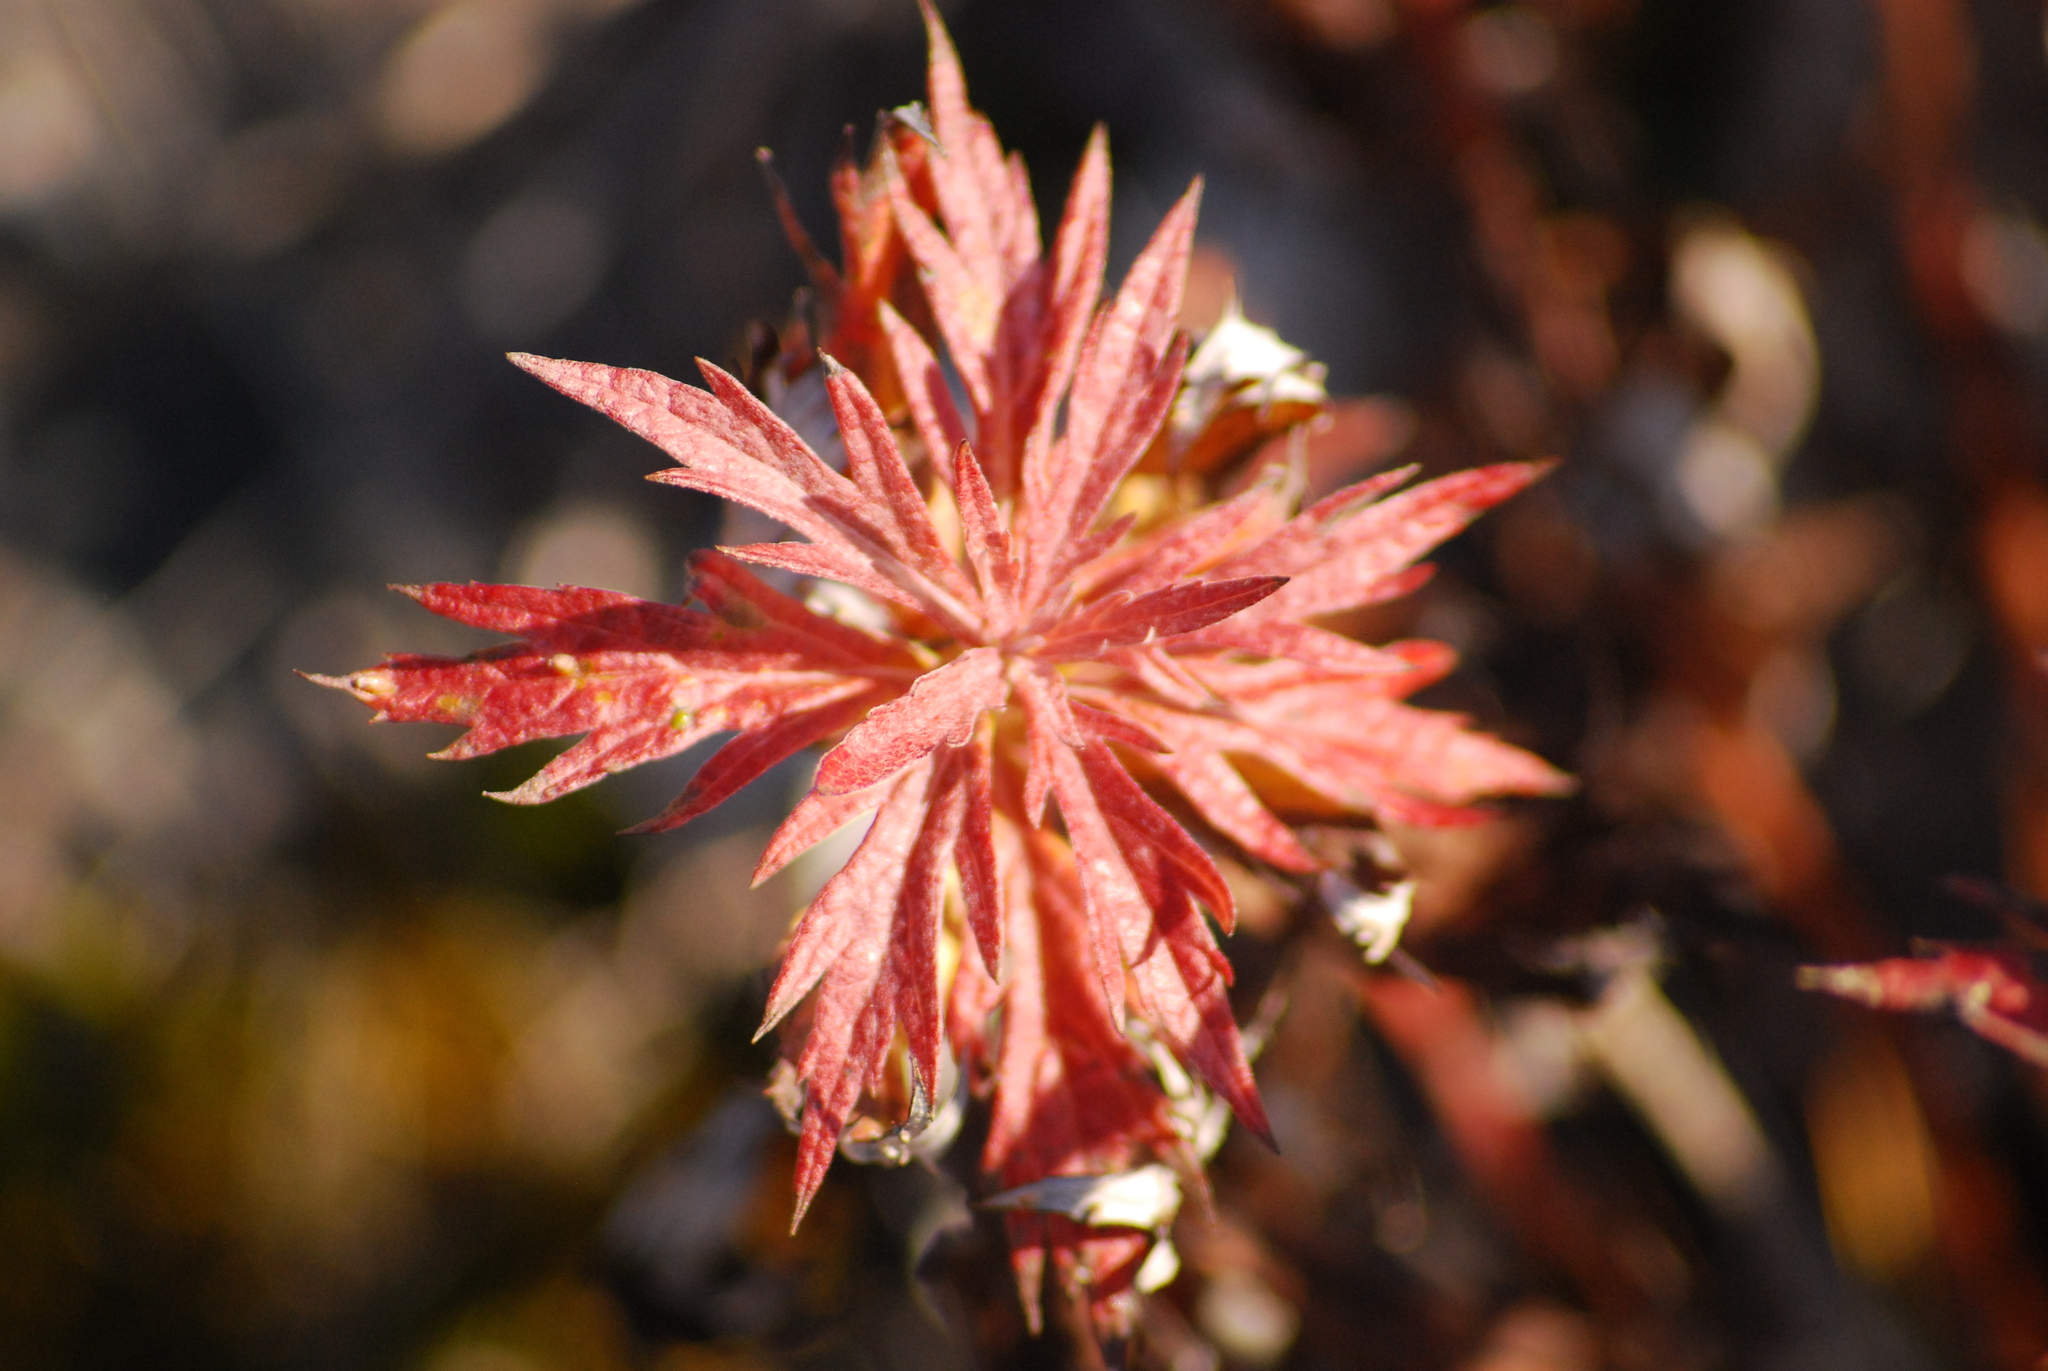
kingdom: Plantae
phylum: Tracheophyta
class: Magnoliopsida
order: Asterales
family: Asteraceae
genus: Artemisia
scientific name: Artemisia tilesii
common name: Aleutian mugwort
